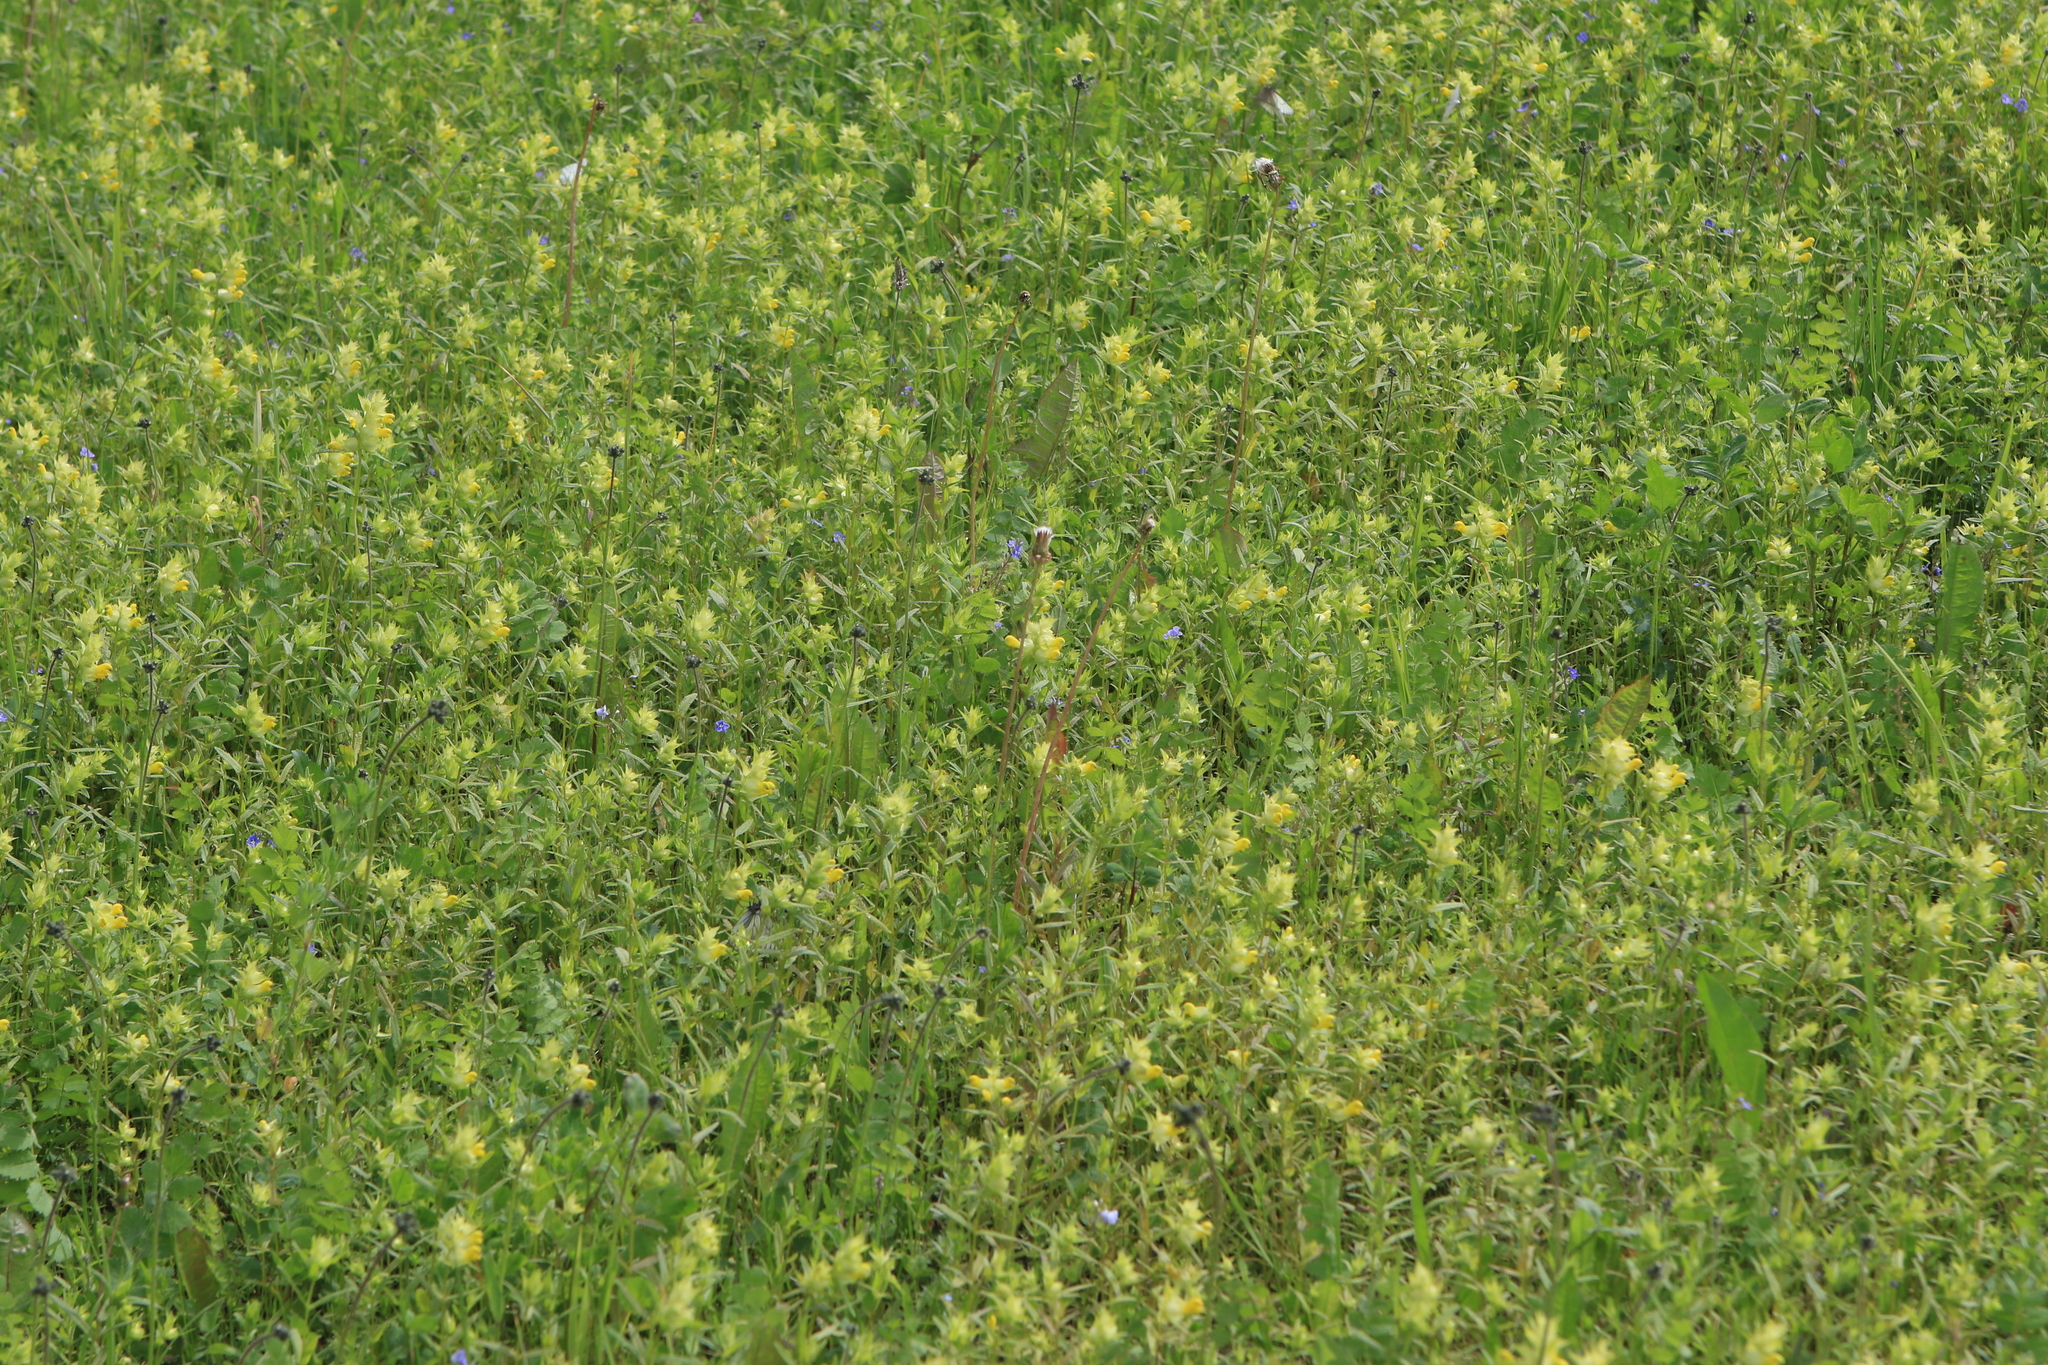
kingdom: Plantae
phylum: Tracheophyta
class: Magnoliopsida
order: Lamiales
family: Orobanchaceae
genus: Rhinanthus
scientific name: Rhinanthus serotinus
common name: Late-flowering yellow rattle
